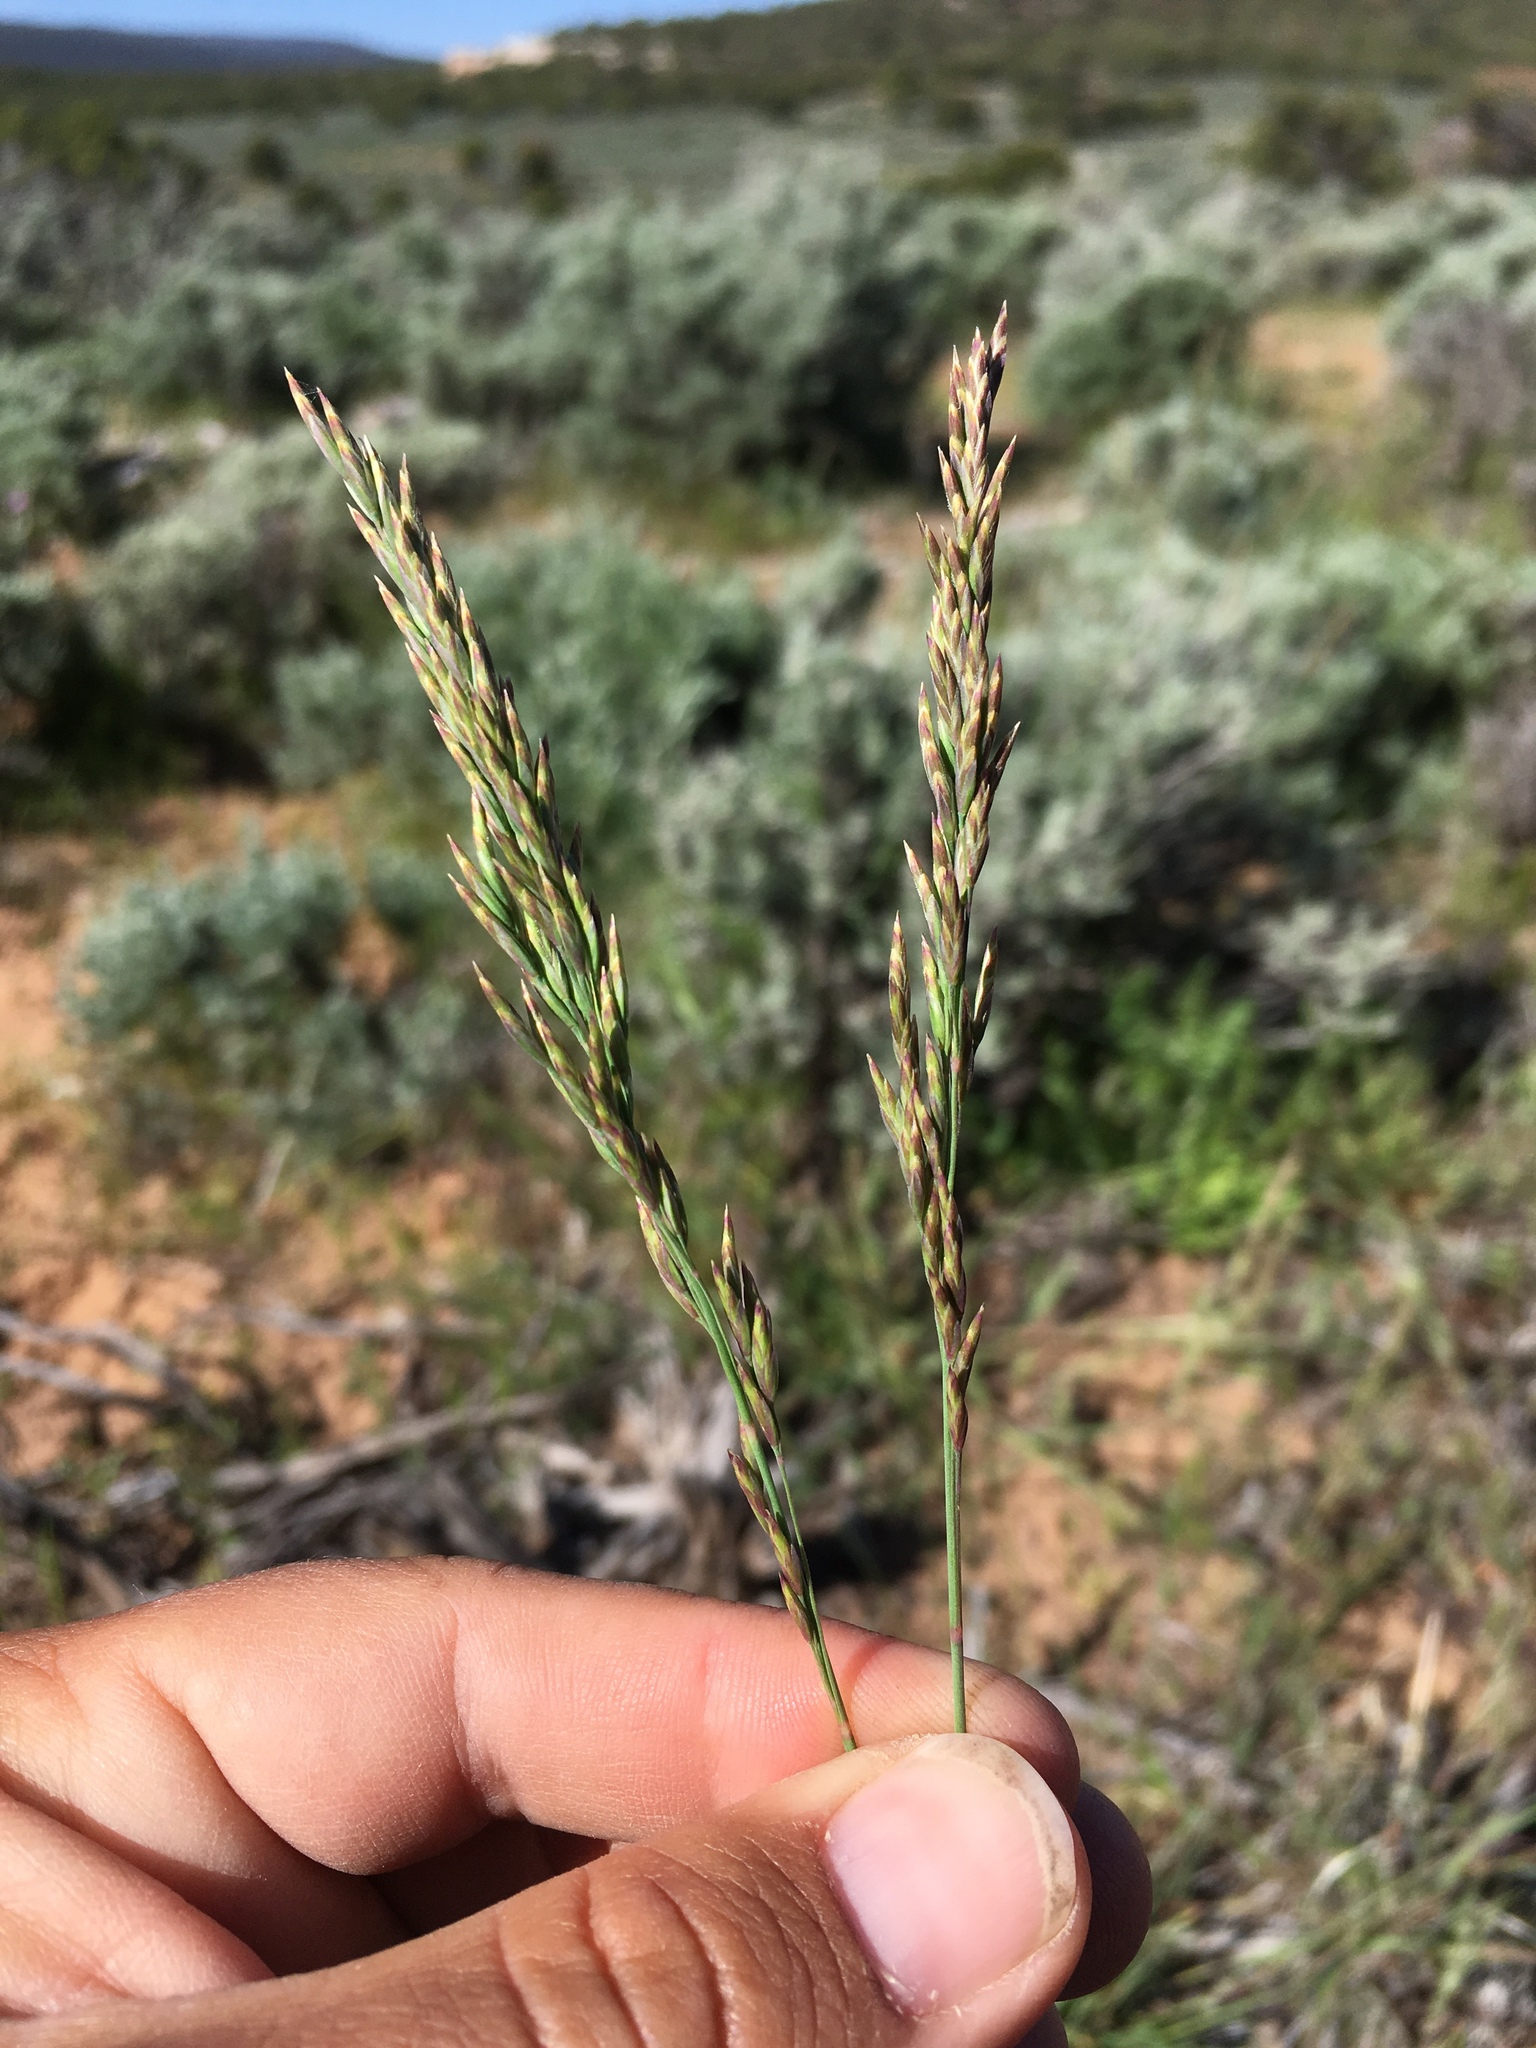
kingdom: Plantae
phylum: Tracheophyta
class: Liliopsida
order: Poales
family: Poaceae
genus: Poa
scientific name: Poa secunda
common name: Sandberg bluegrass
